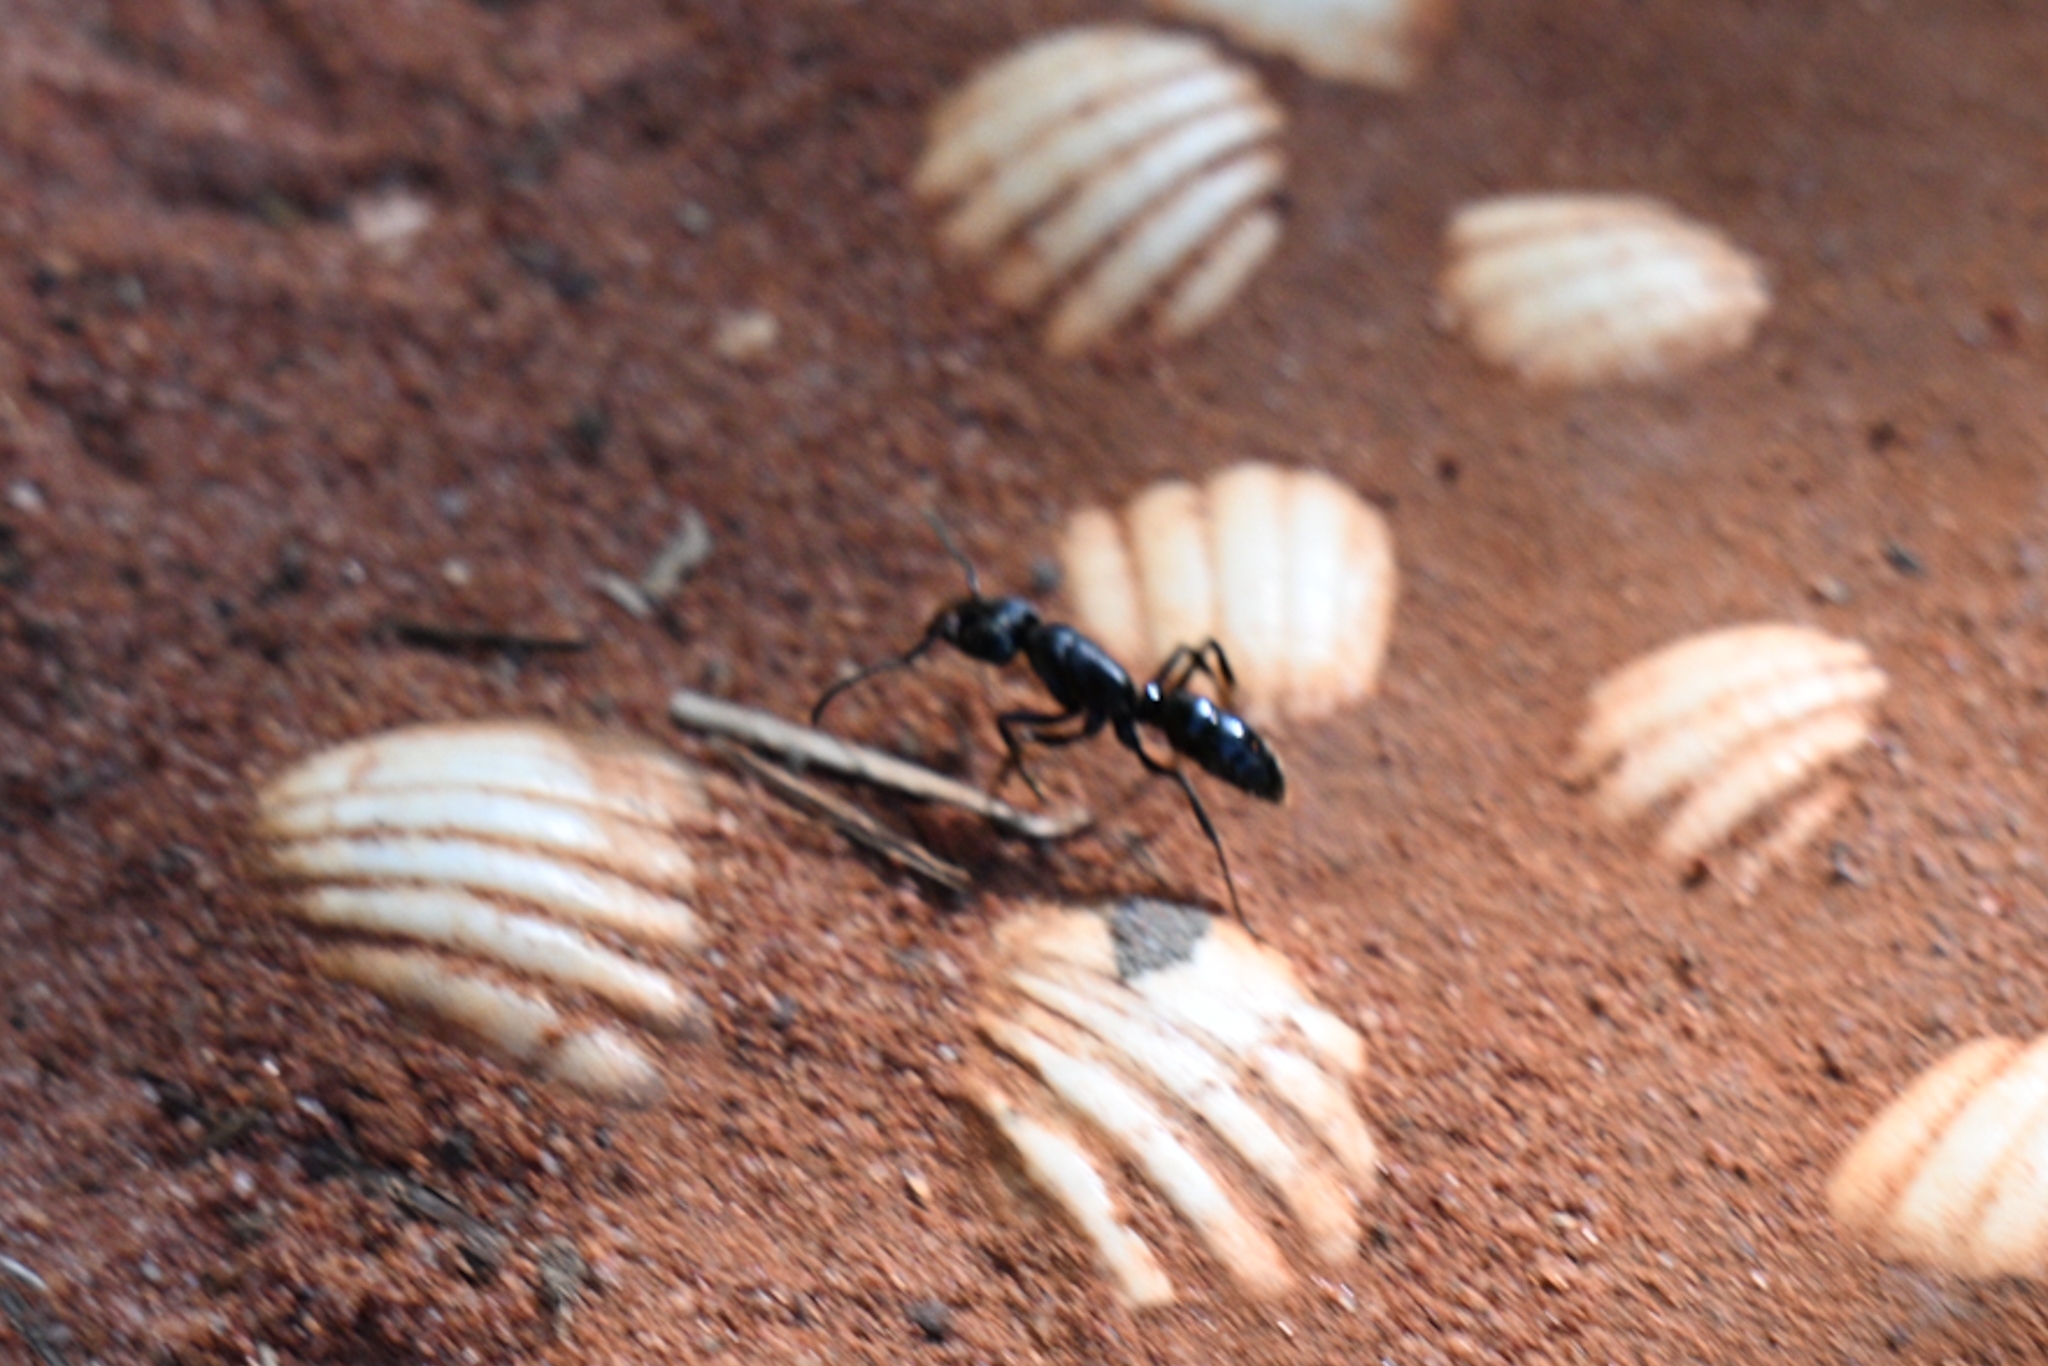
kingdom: Animalia
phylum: Arthropoda
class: Insecta
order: Hymenoptera
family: Formicidae
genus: Paltothyreus
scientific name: Paltothyreus tarsatus
